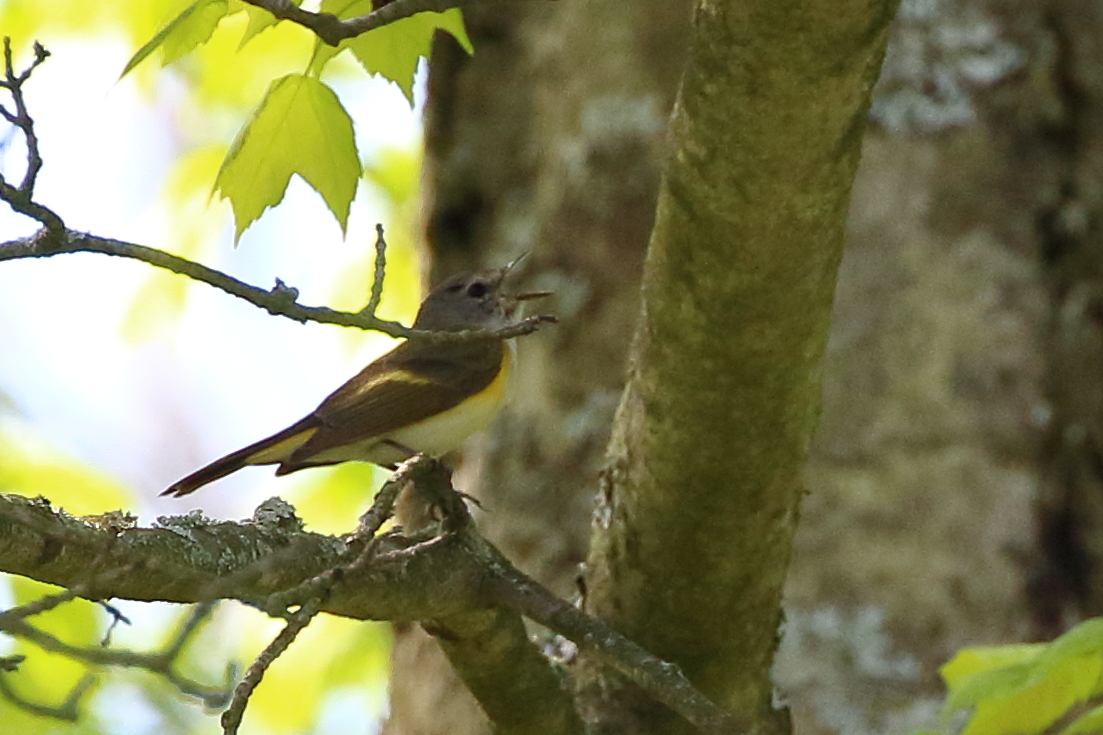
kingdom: Animalia
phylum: Chordata
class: Aves
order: Passeriformes
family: Parulidae
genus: Setophaga
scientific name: Setophaga ruticilla
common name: American redstart
